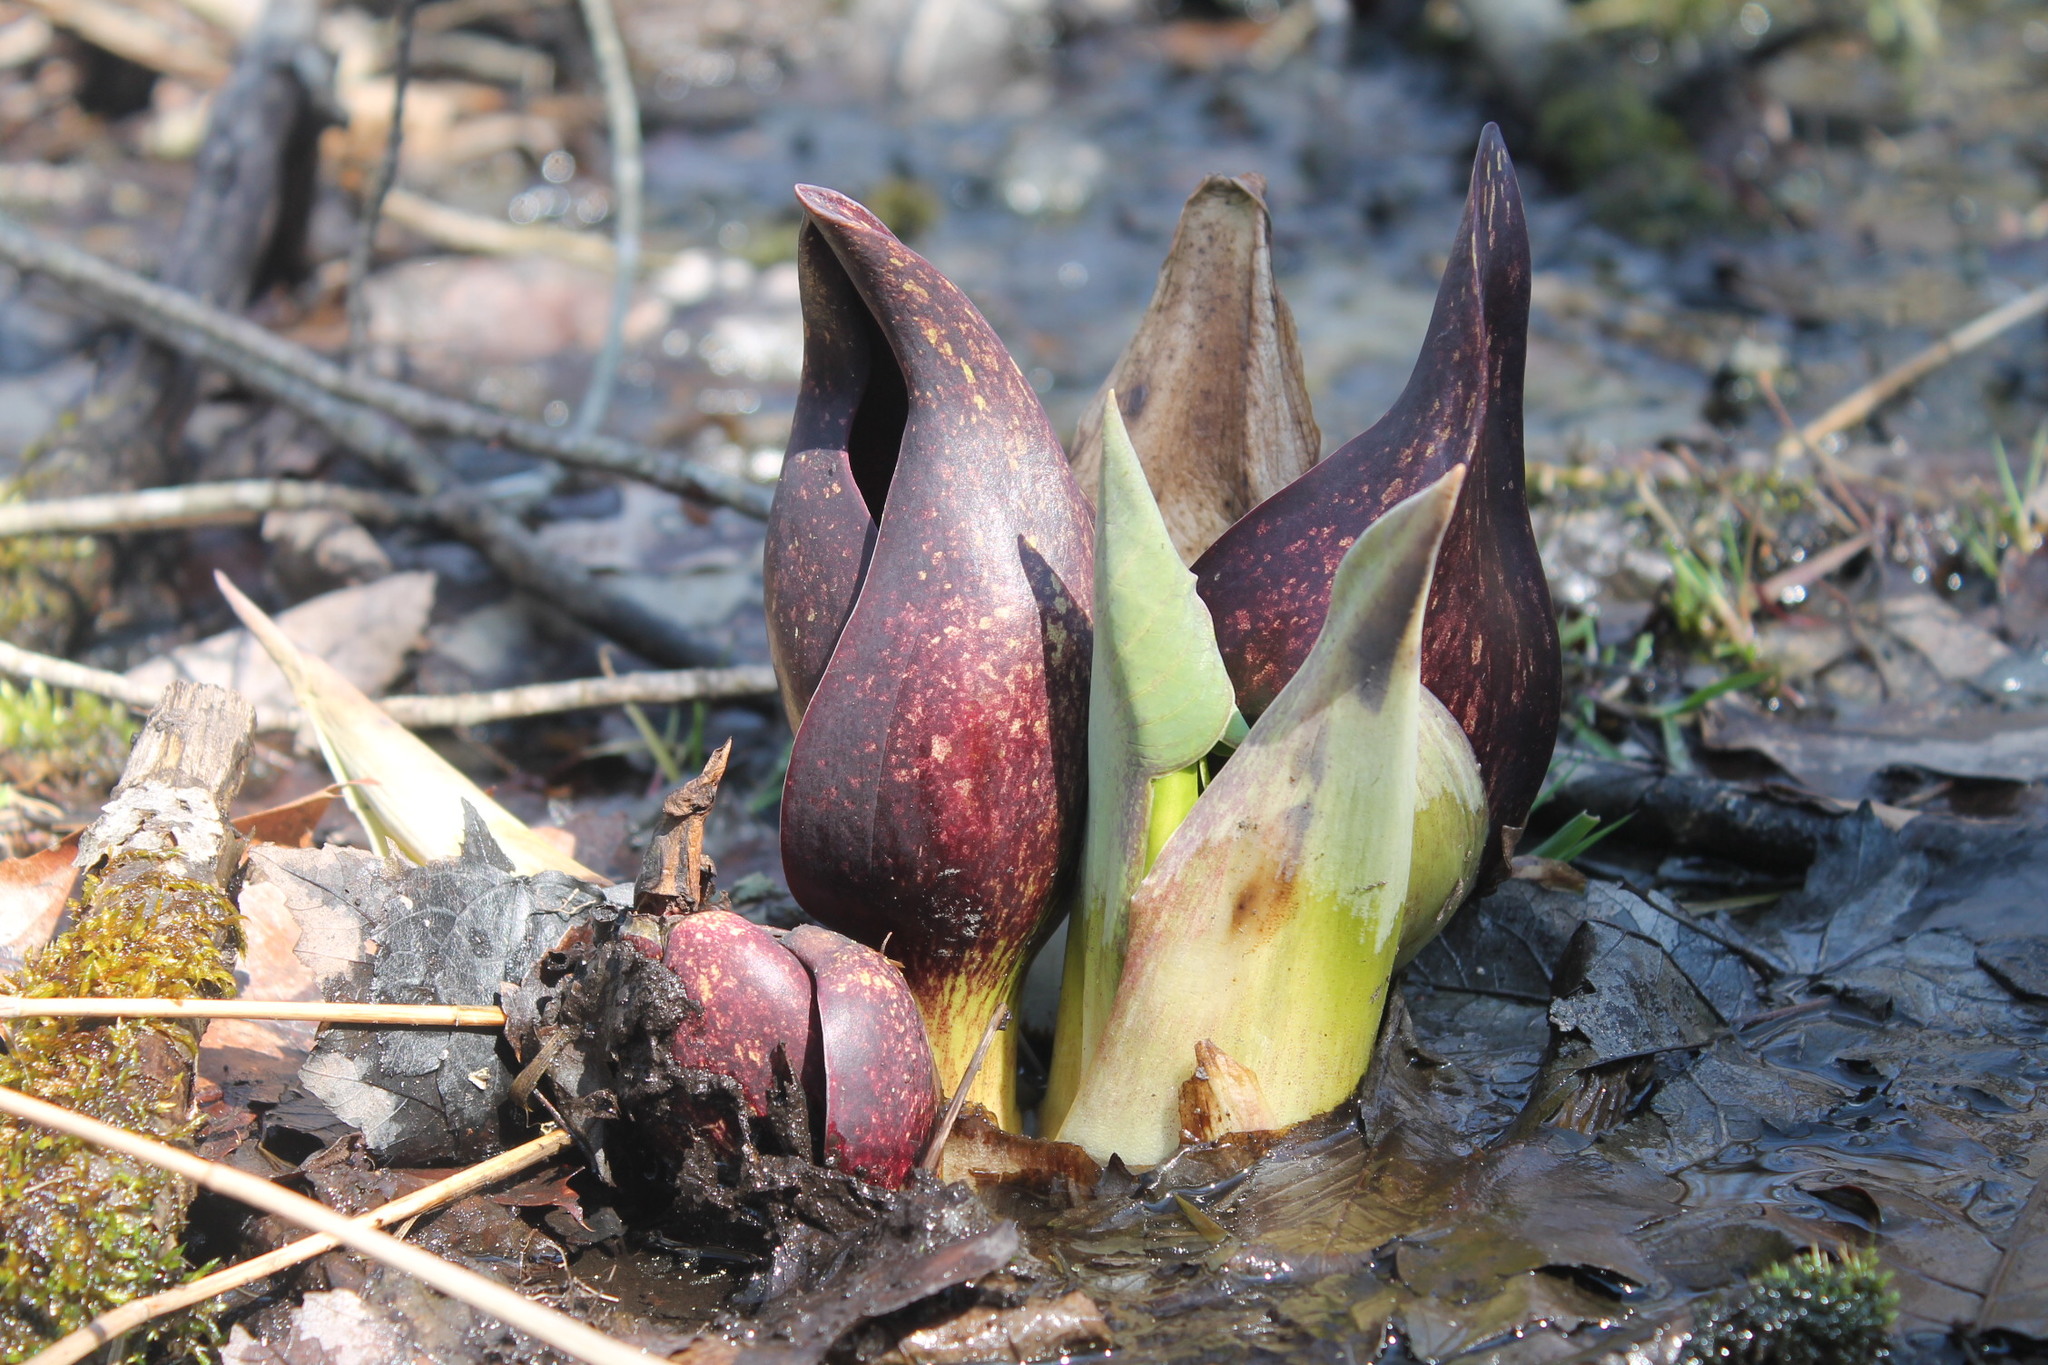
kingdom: Plantae
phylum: Tracheophyta
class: Liliopsida
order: Alismatales
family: Araceae
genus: Symplocarpus
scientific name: Symplocarpus foetidus
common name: Eastern skunk cabbage
